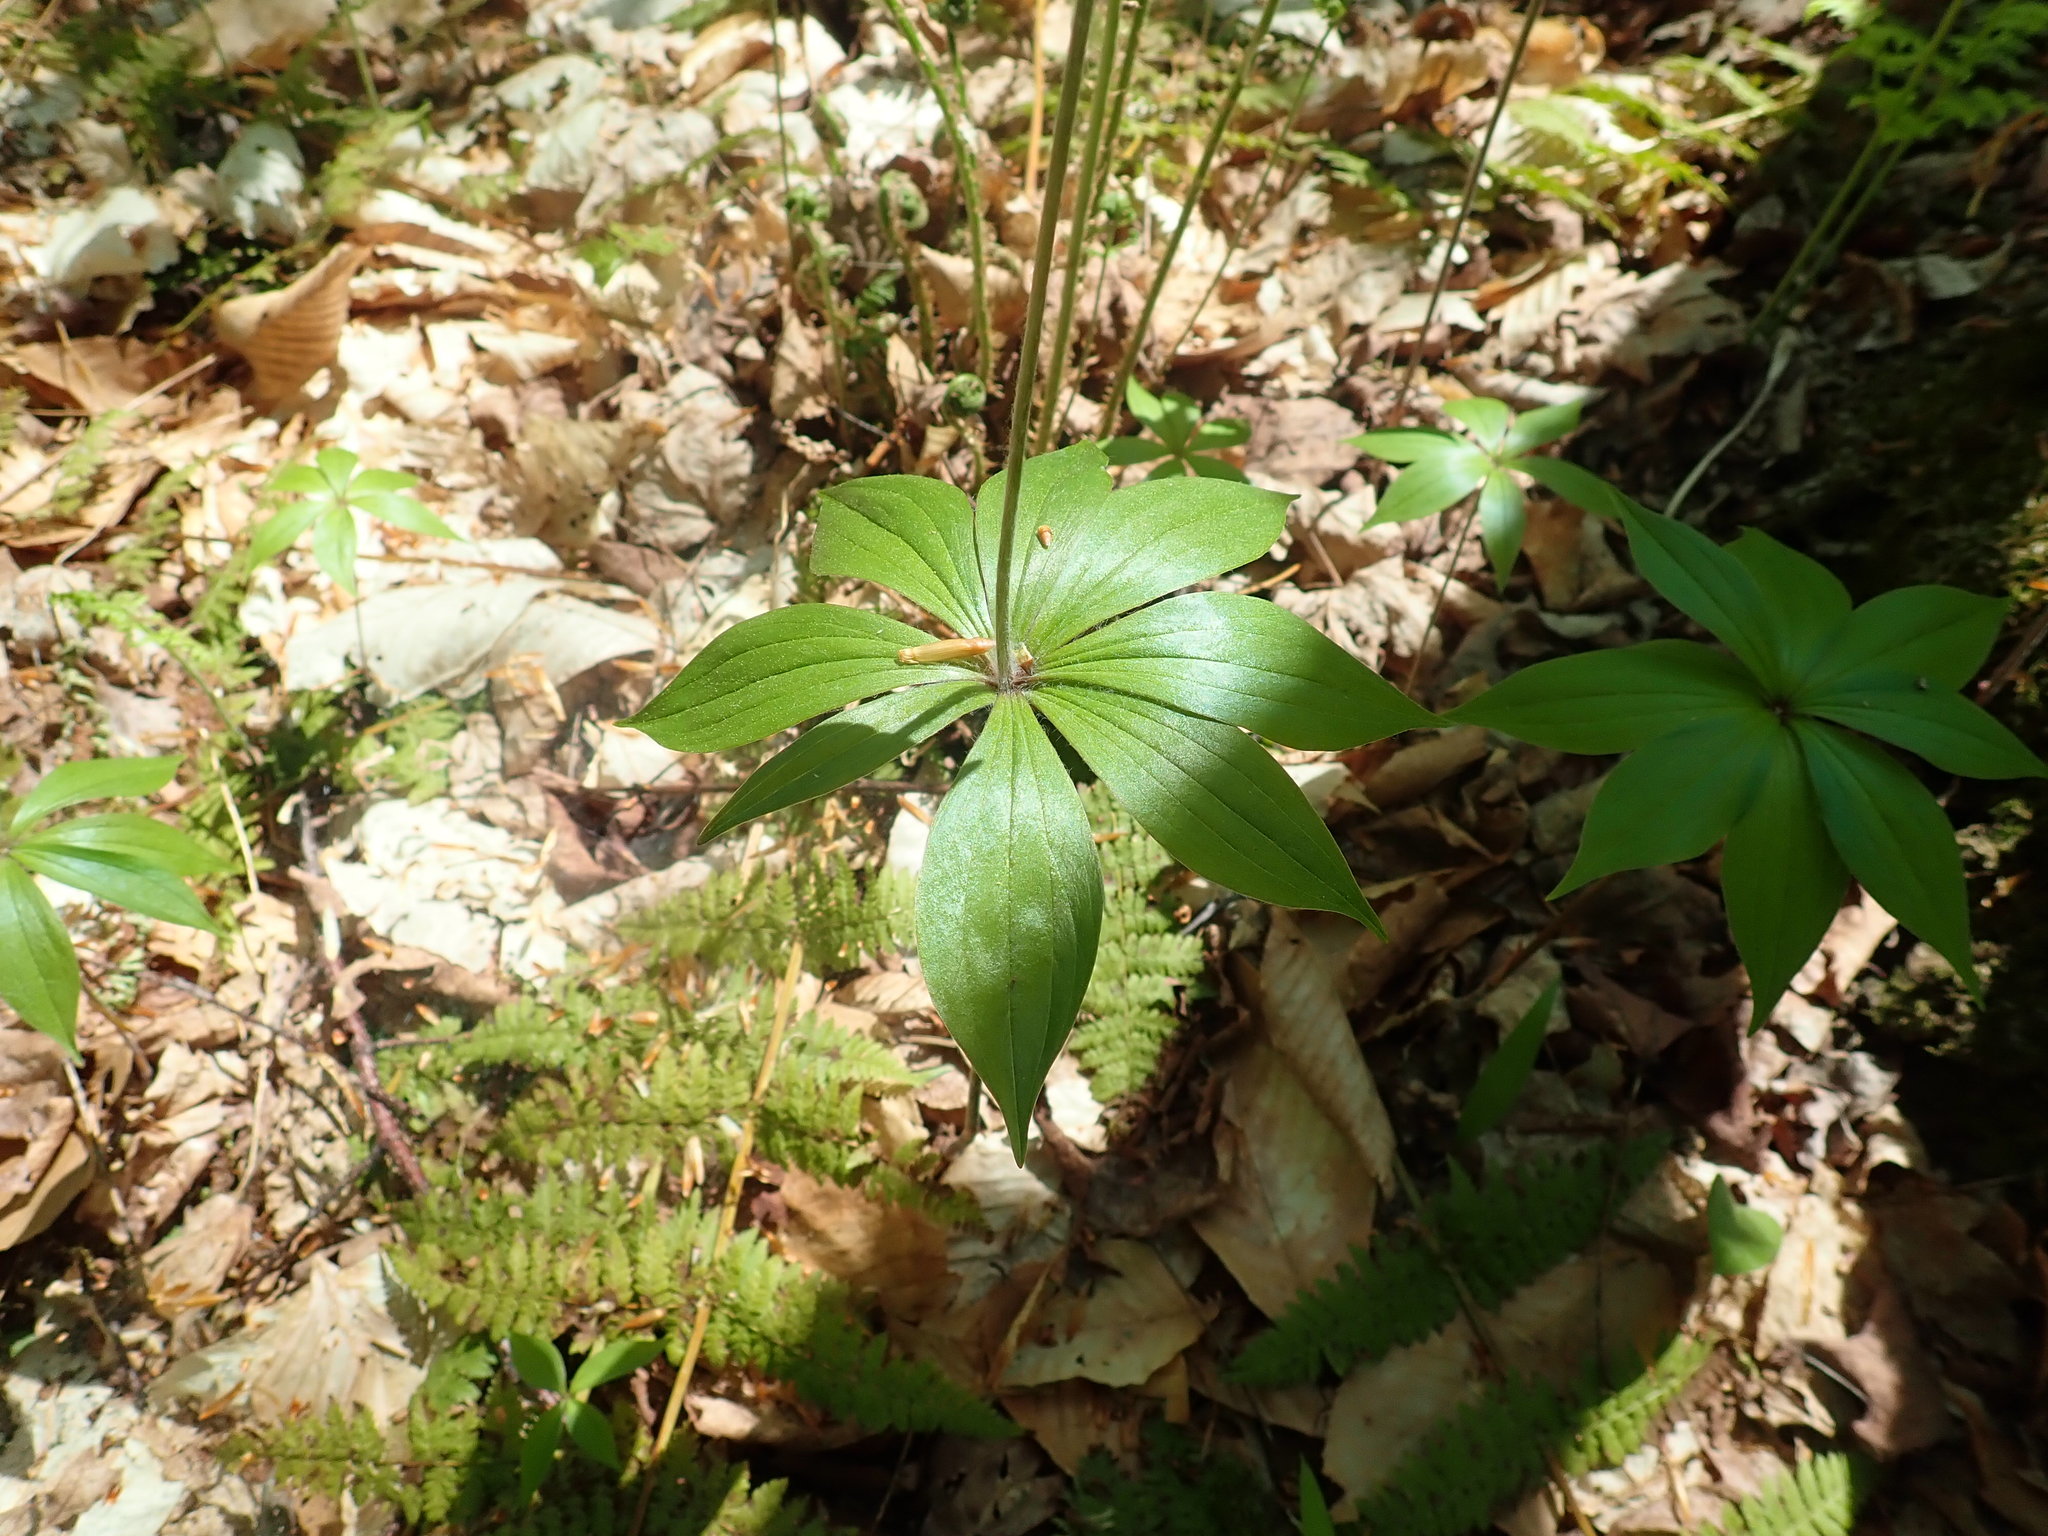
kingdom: Plantae
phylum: Tracheophyta
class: Liliopsida
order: Liliales
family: Liliaceae
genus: Medeola
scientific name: Medeola virginiana
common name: Indian cucumber-root
